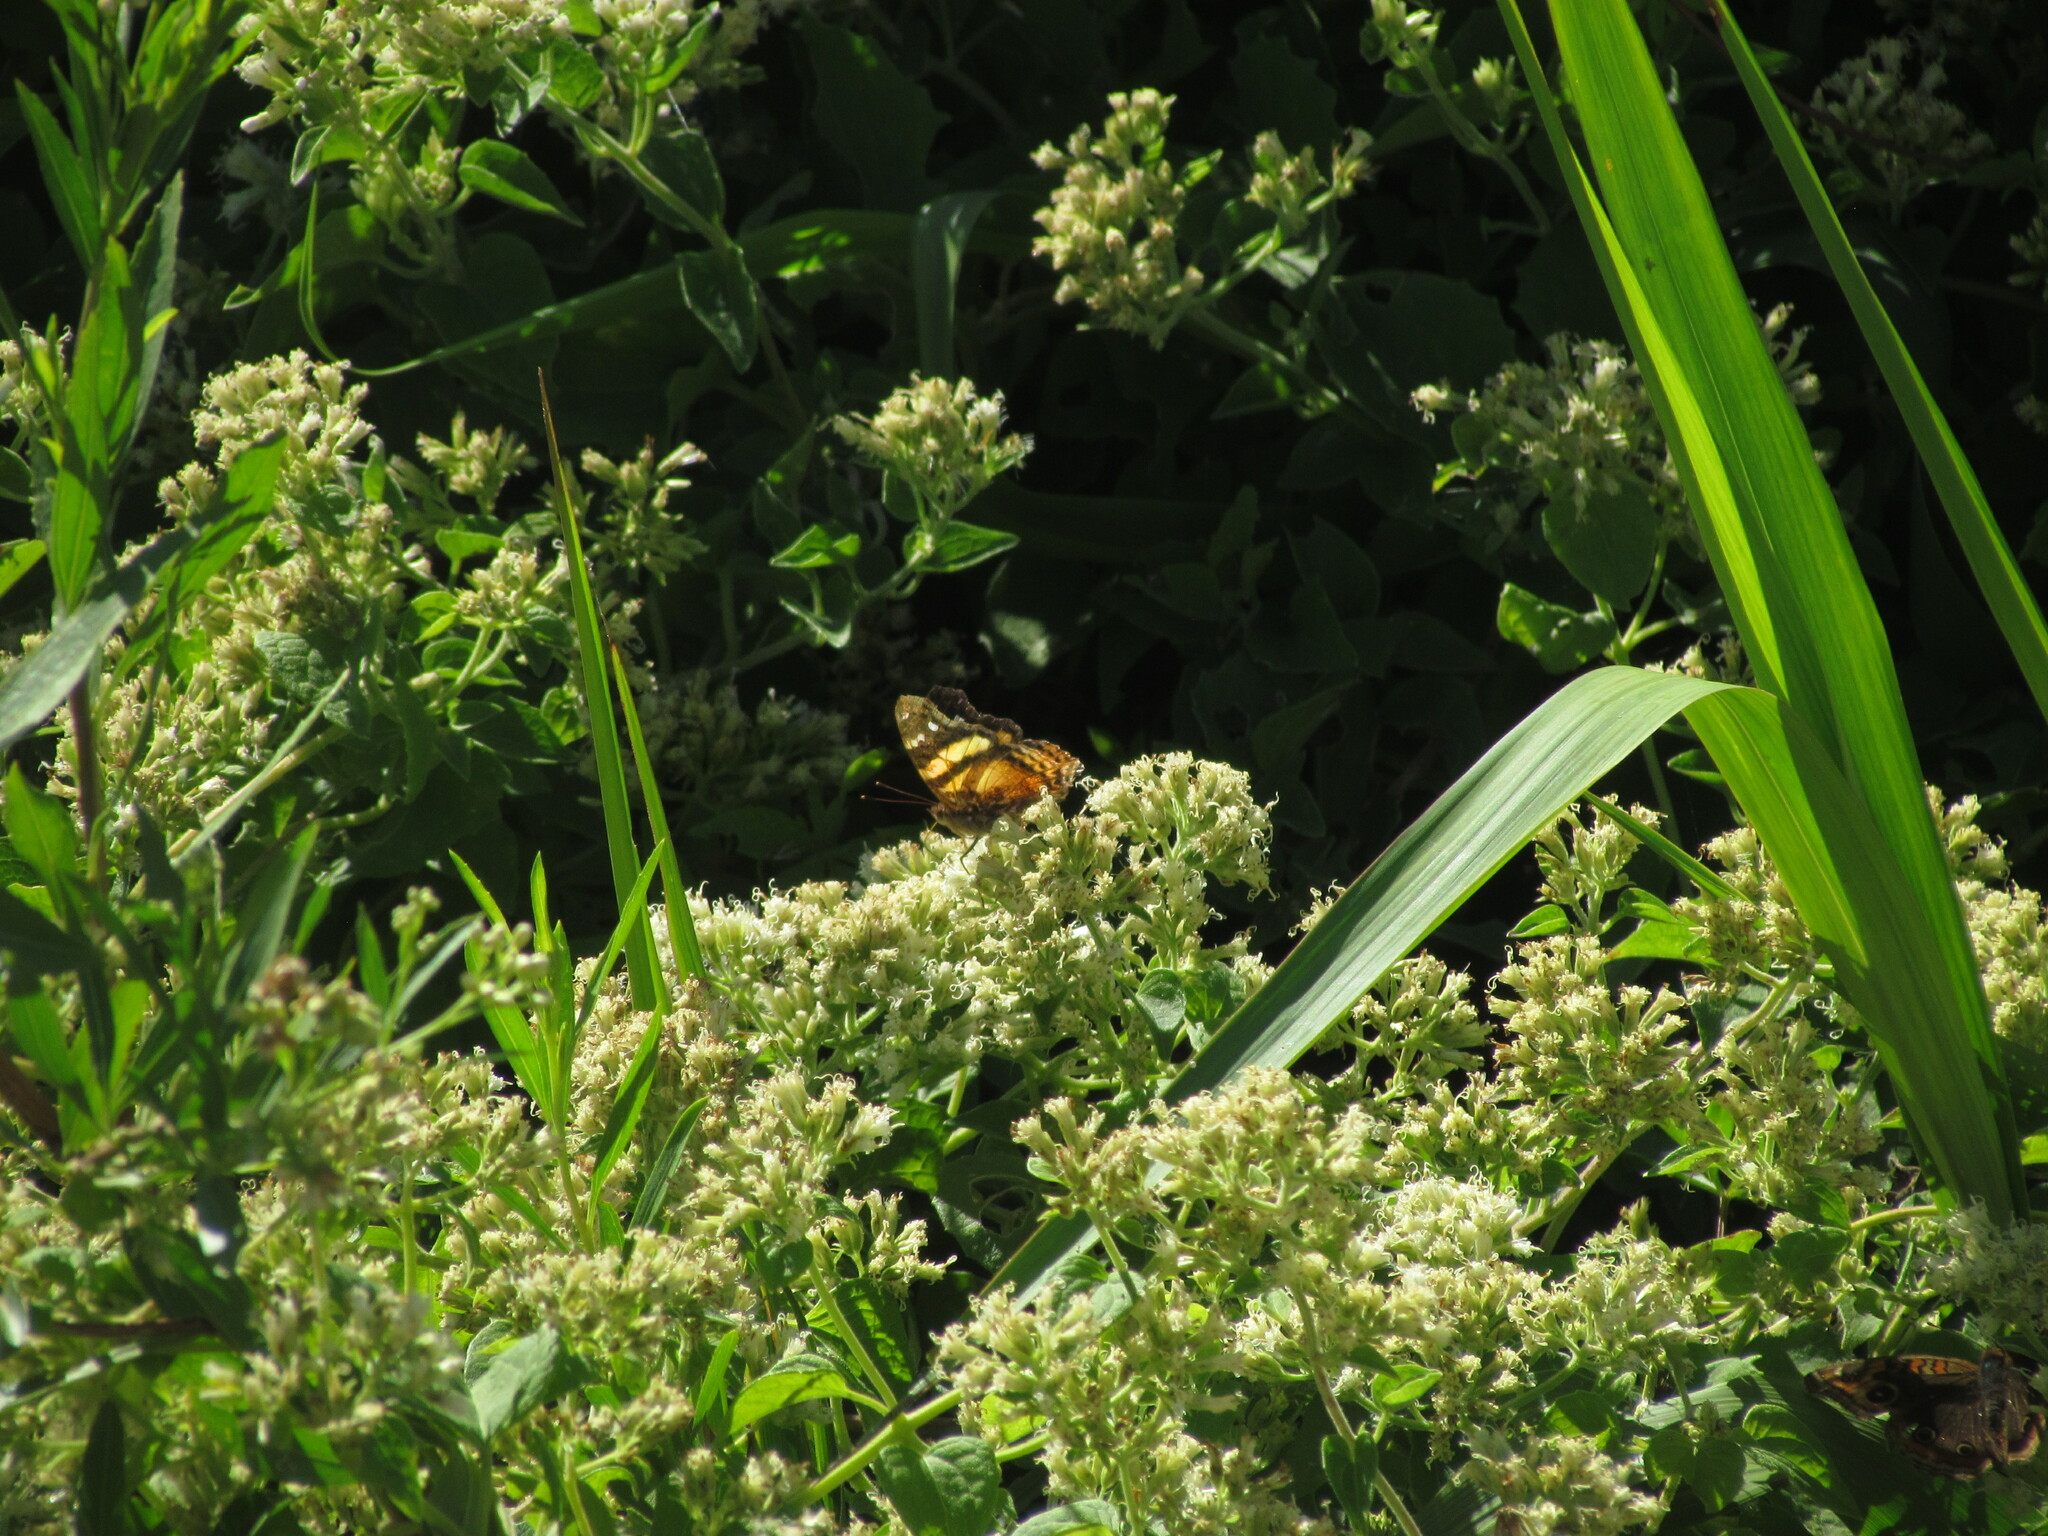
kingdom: Animalia
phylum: Arthropoda
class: Insecta
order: Lepidoptera
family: Nymphalidae
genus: Hypanartia
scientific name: Hypanartia bella
